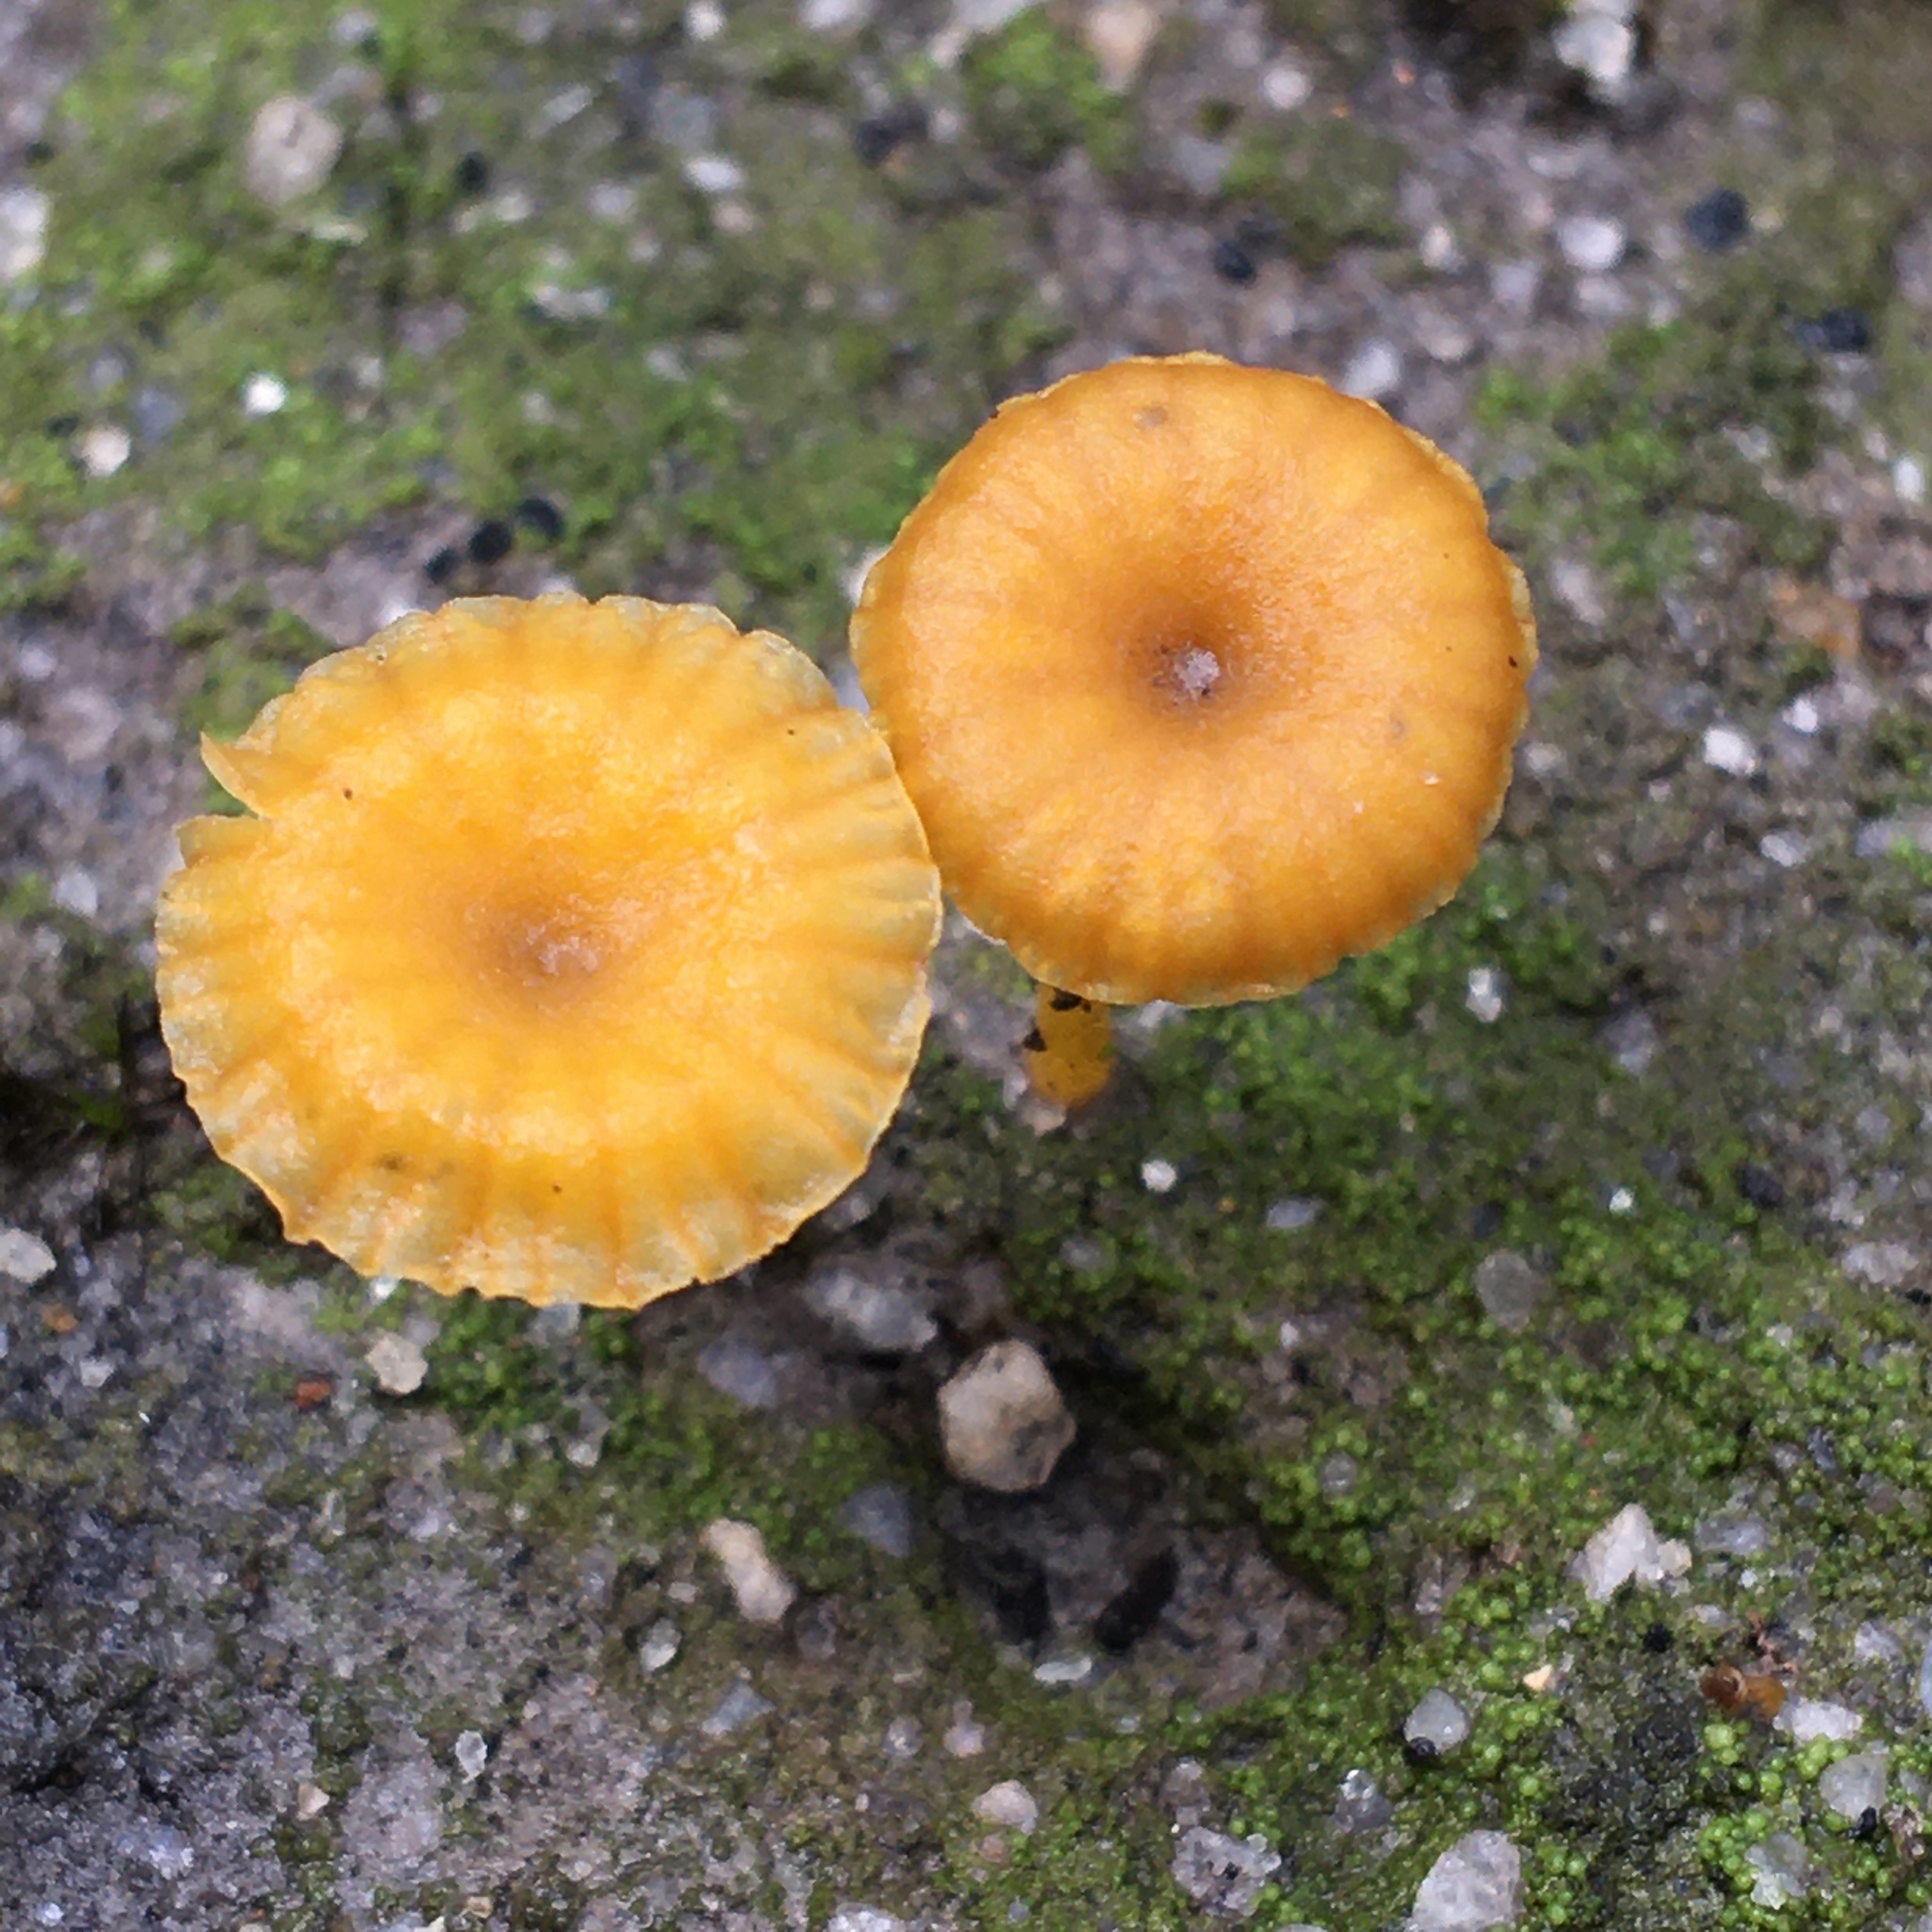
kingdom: Fungi
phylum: Basidiomycota
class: Agaricomycetes
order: Agaricales
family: Hygrophoraceae
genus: Lichenomphalia
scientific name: Lichenomphalia chromacea
